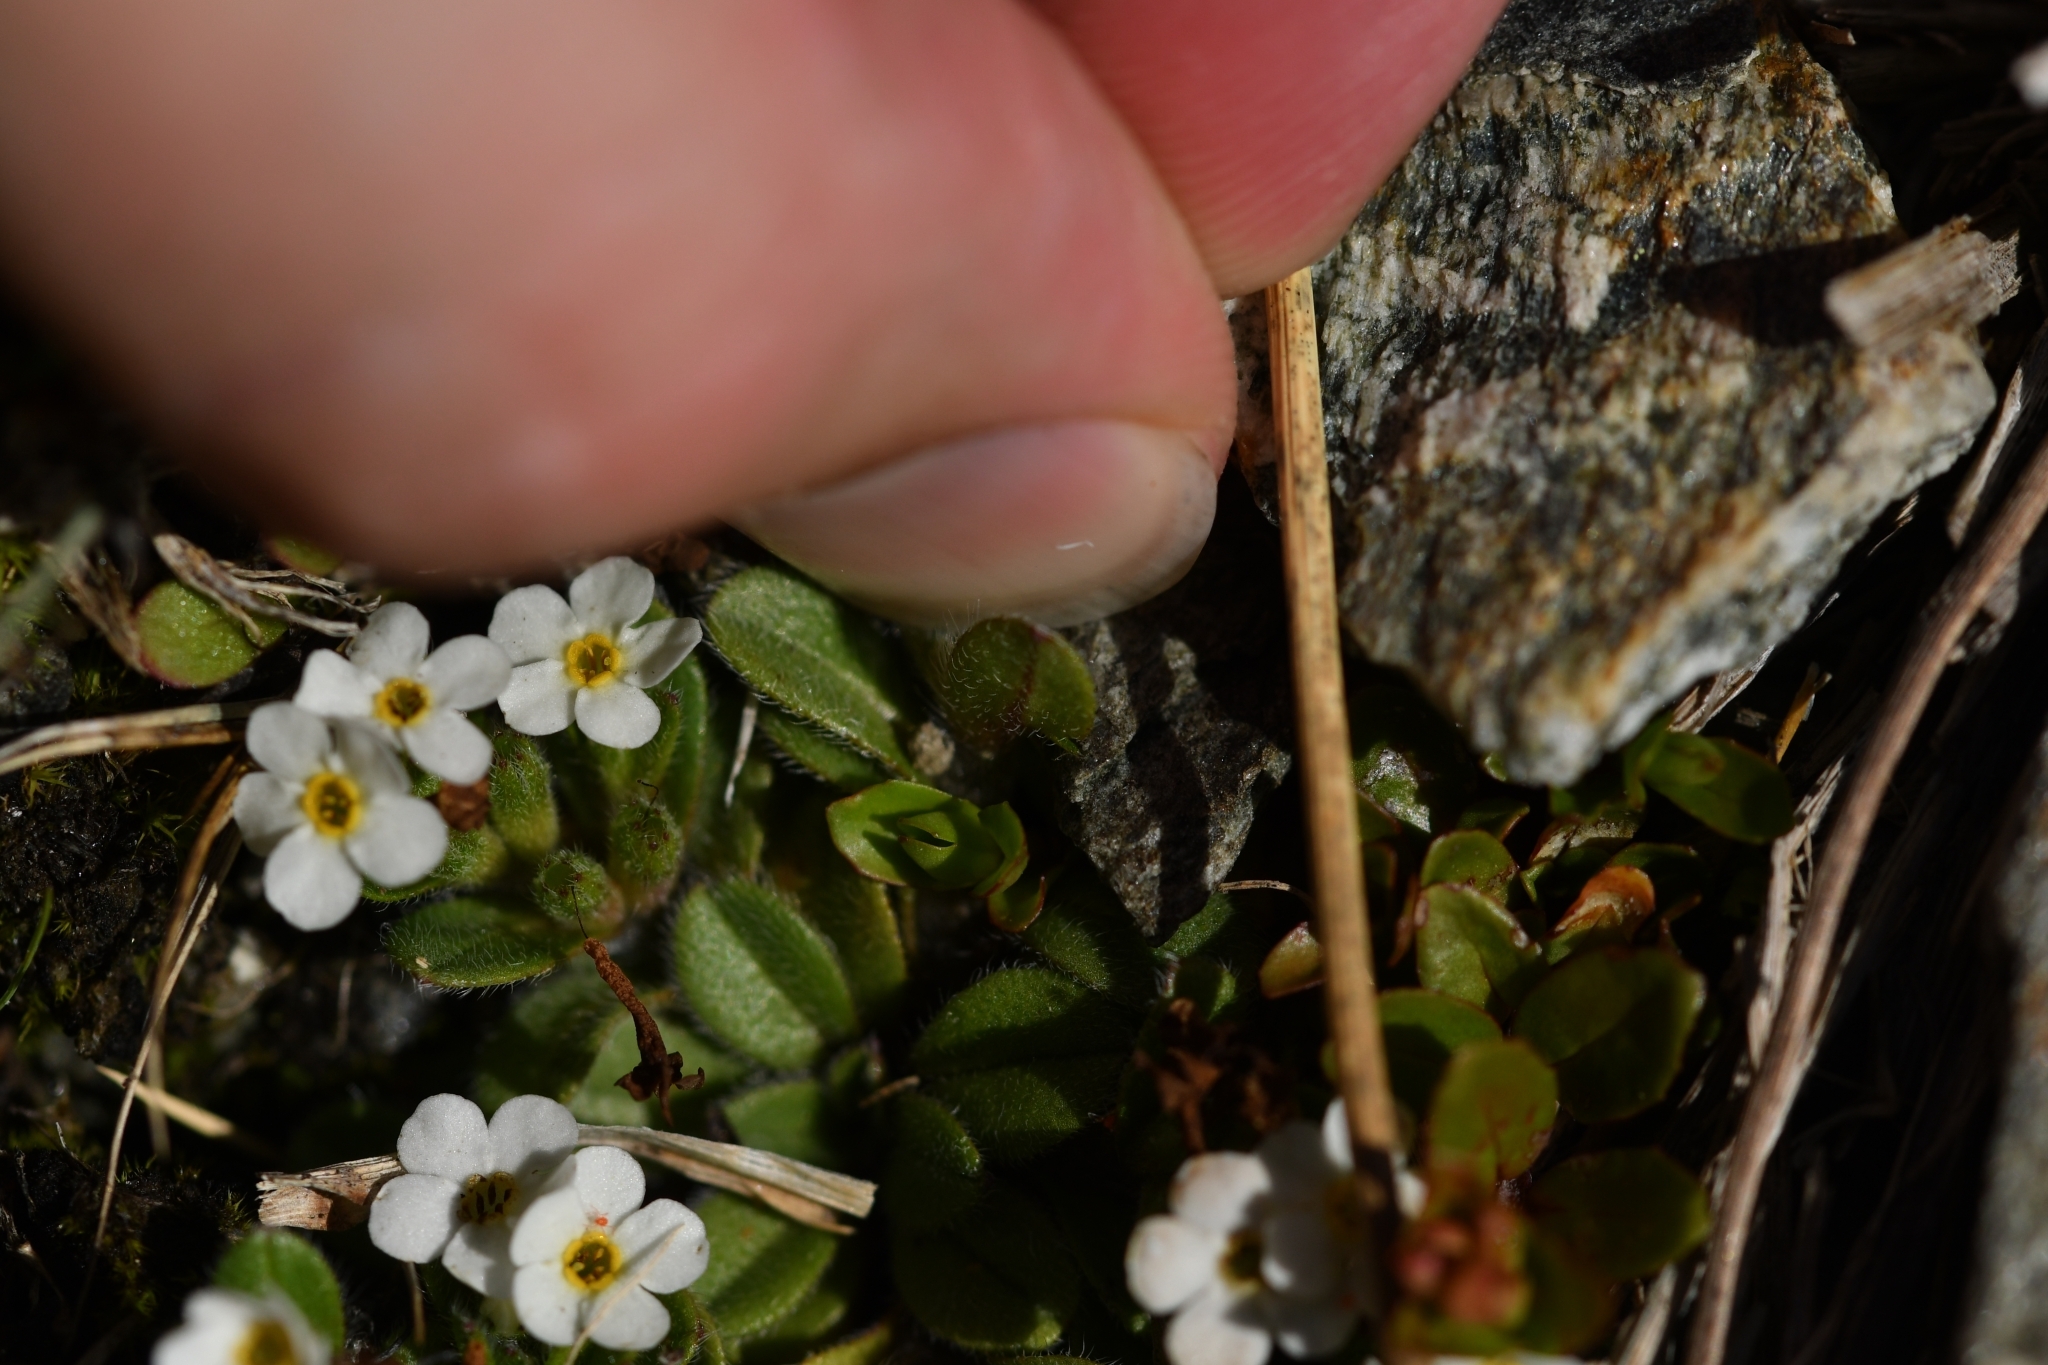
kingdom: Plantae
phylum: Tracheophyta
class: Magnoliopsida
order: Boraginales
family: Boraginaceae
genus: Myosotis
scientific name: Myosotis lyallii
